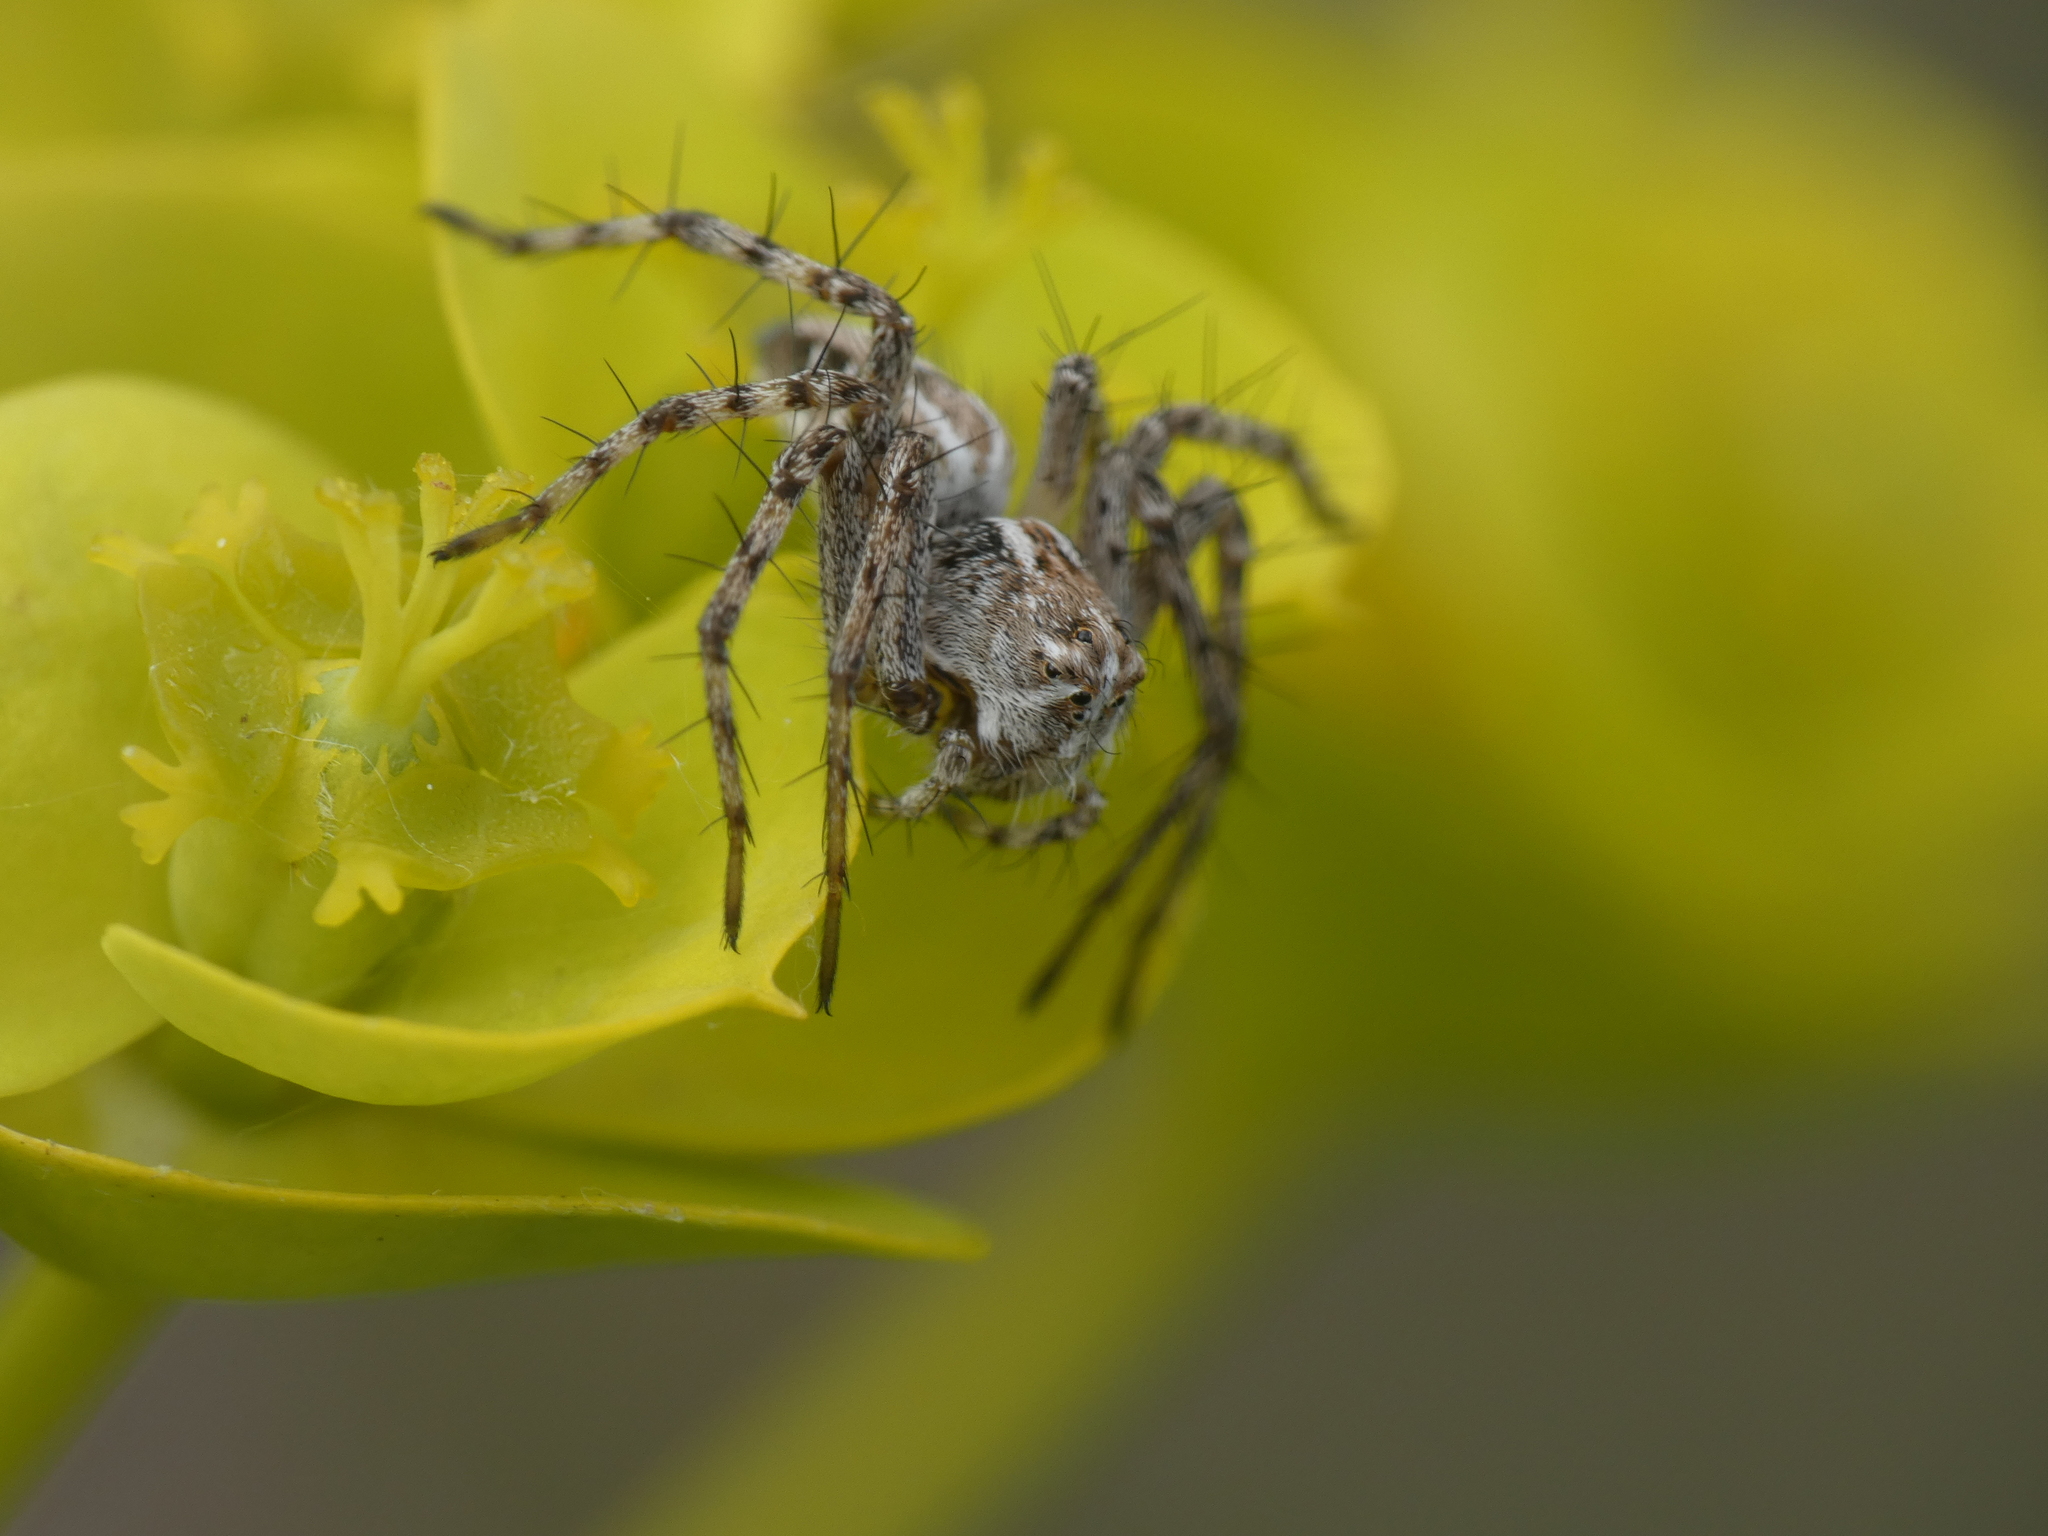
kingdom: Animalia
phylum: Arthropoda
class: Arachnida
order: Araneae
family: Oxyopidae
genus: Oxyopes
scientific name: Oxyopes heterophthalmus
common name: Lynx spider
